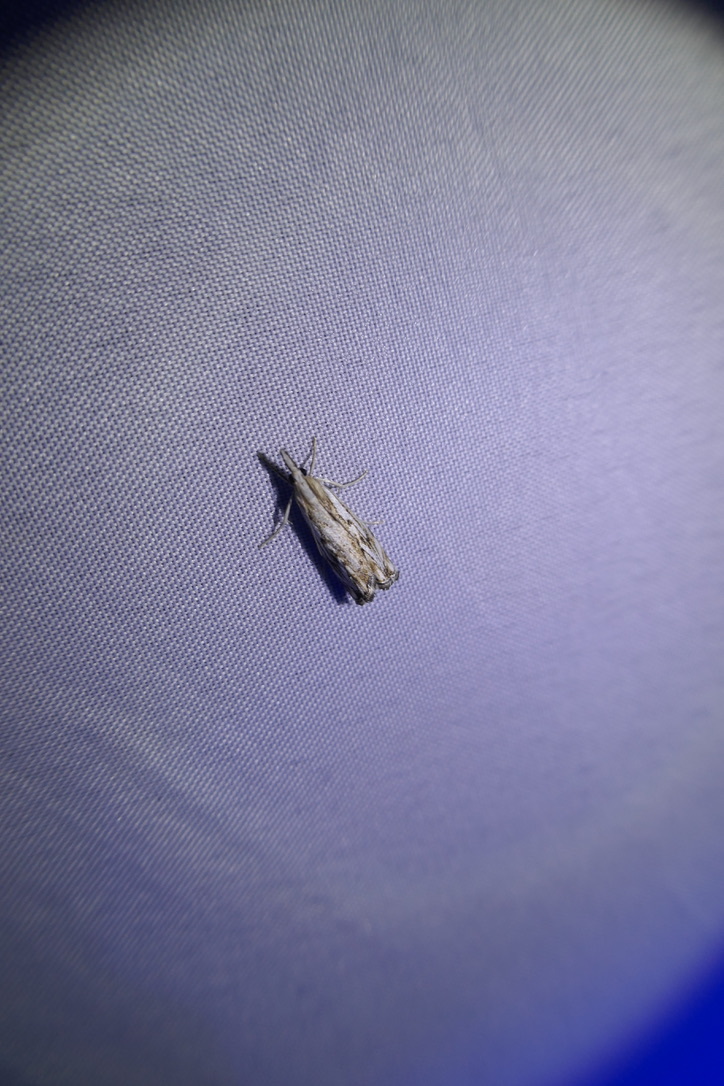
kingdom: Animalia
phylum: Arthropoda
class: Insecta
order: Lepidoptera
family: Crambidae
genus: Catoptria
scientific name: Catoptria falsella
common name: Chequered grass-veneer
